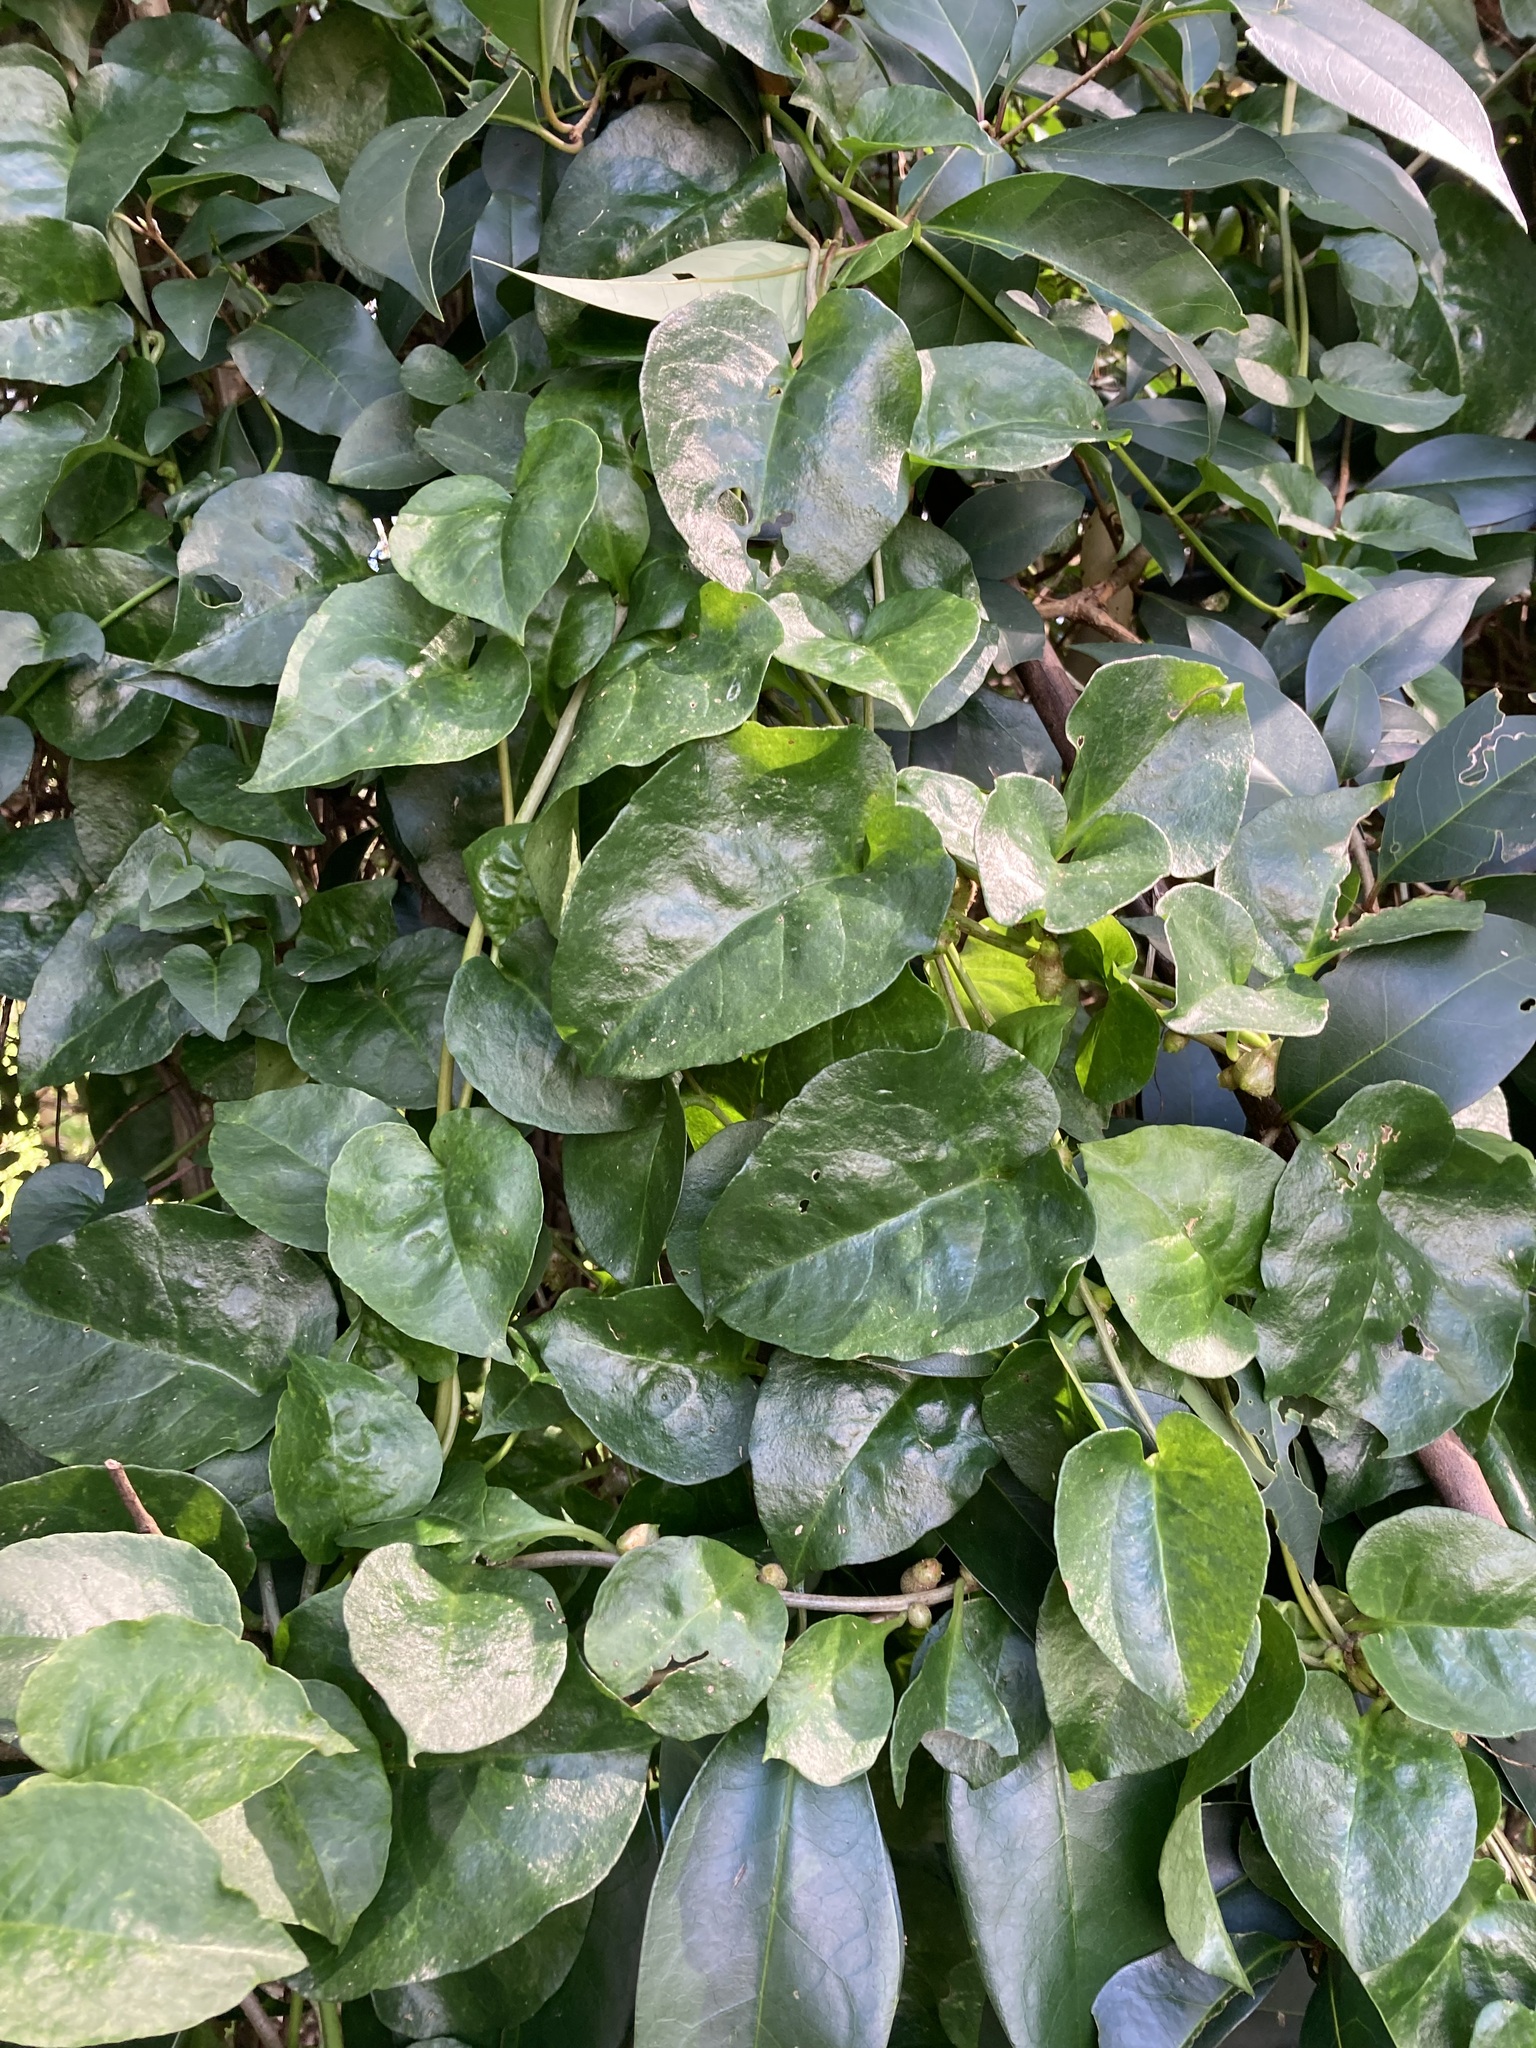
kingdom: Plantae
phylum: Tracheophyta
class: Magnoliopsida
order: Caryophyllales
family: Basellaceae
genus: Anredera
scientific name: Anredera cordifolia
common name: Heartleaf madeiravine
